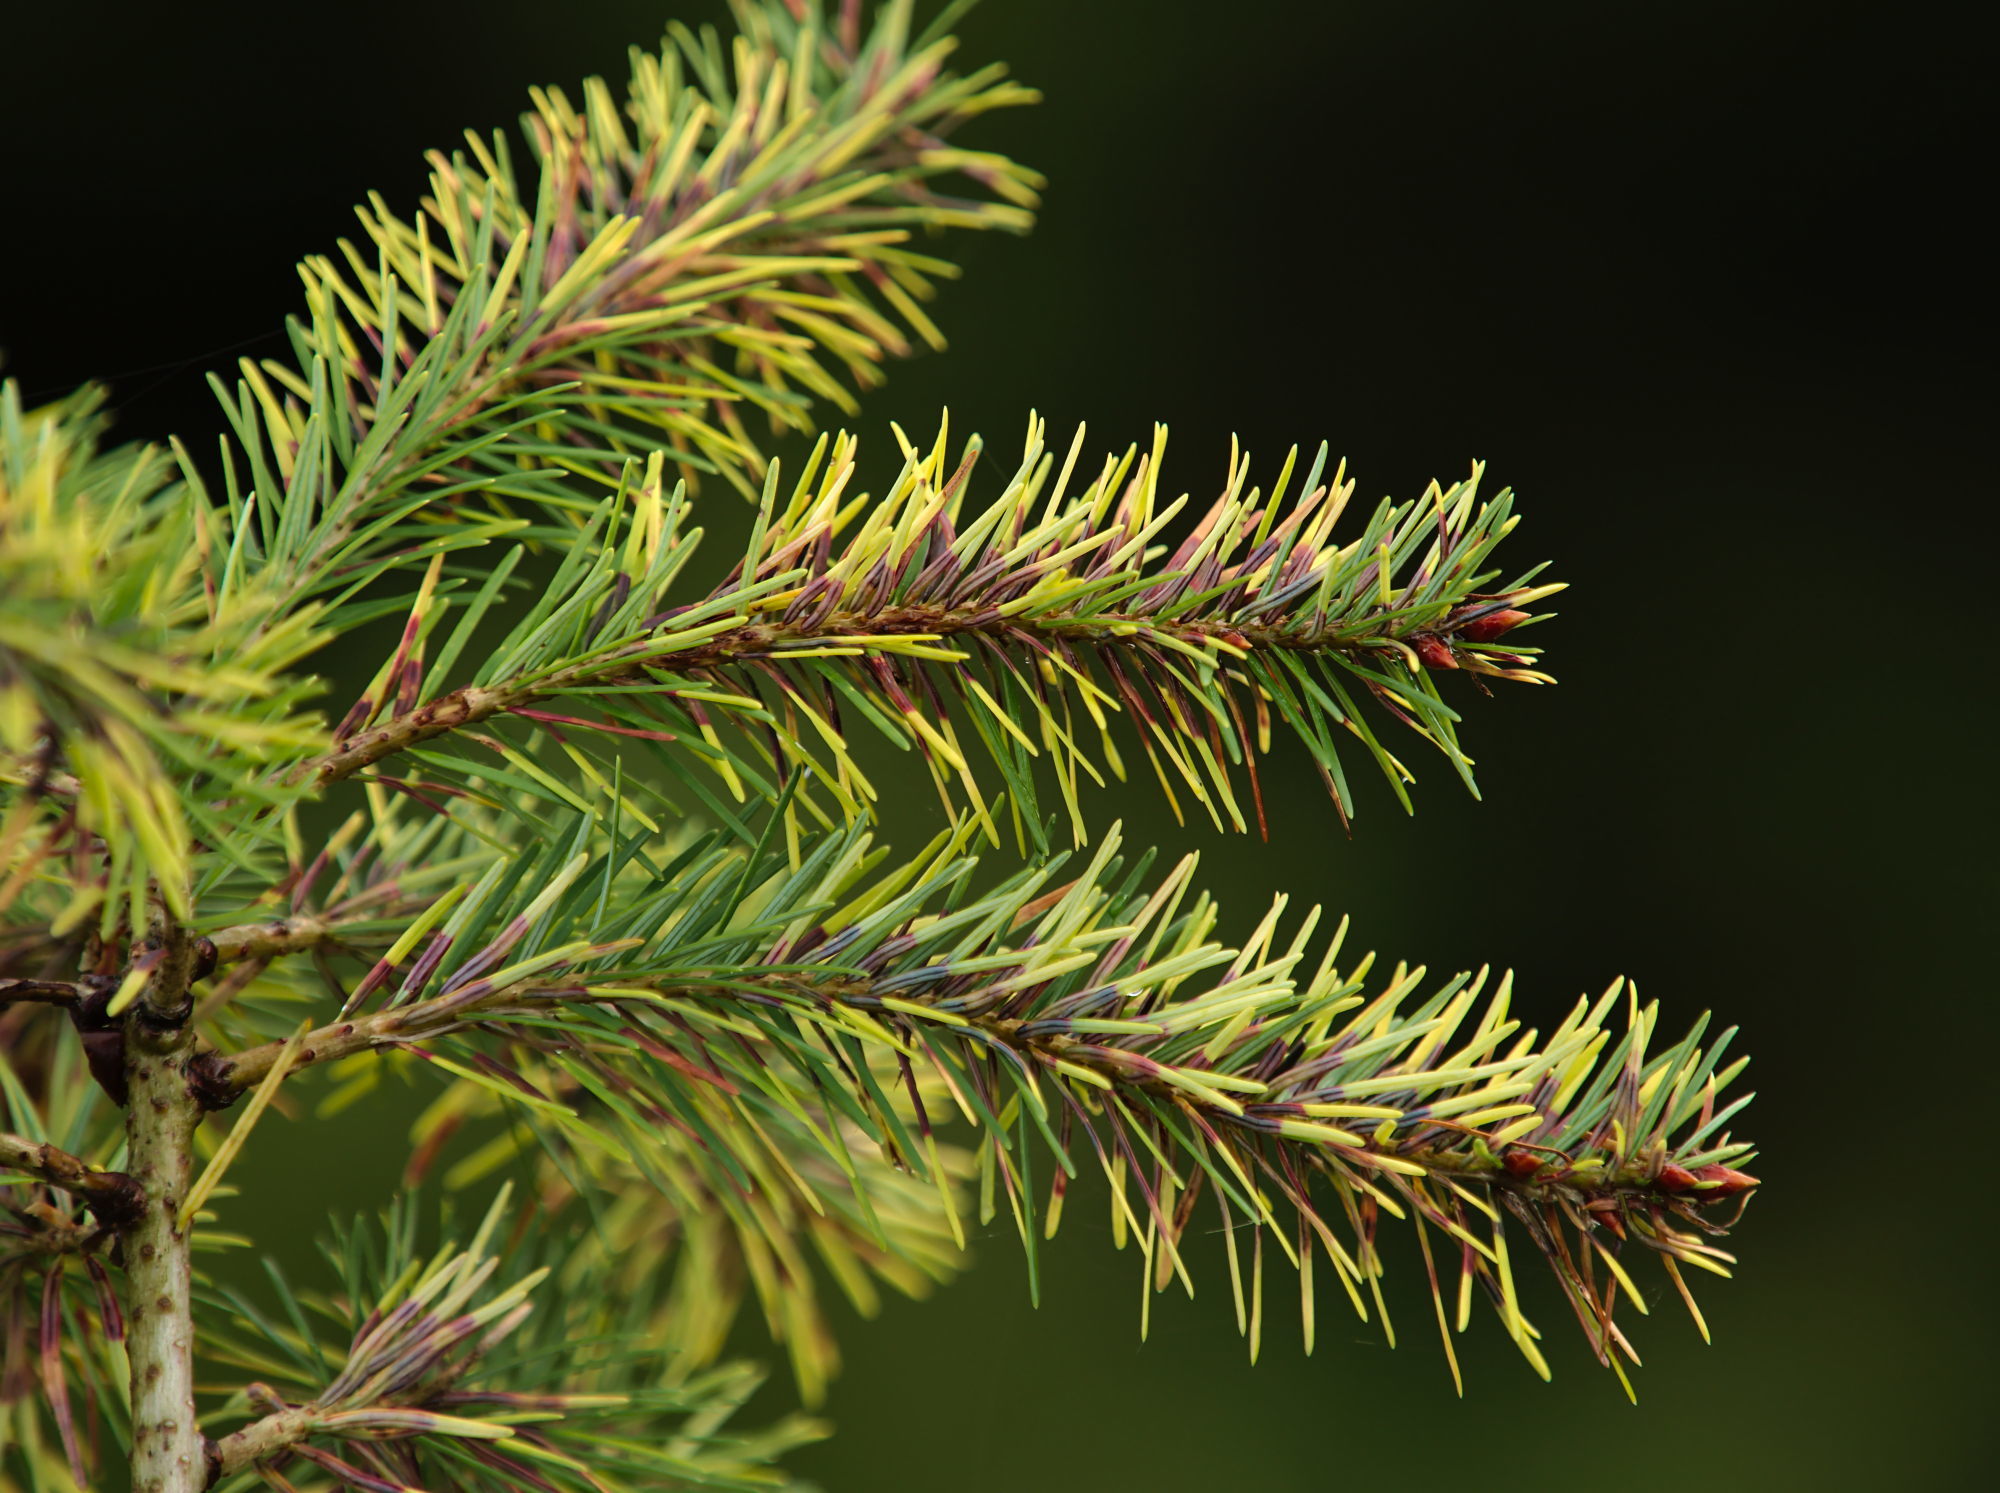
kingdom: Animalia
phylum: Arthropoda
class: Insecta
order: Diptera
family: Cecidomyiidae
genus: Contarinia
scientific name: Contarinia pseudotsugae
